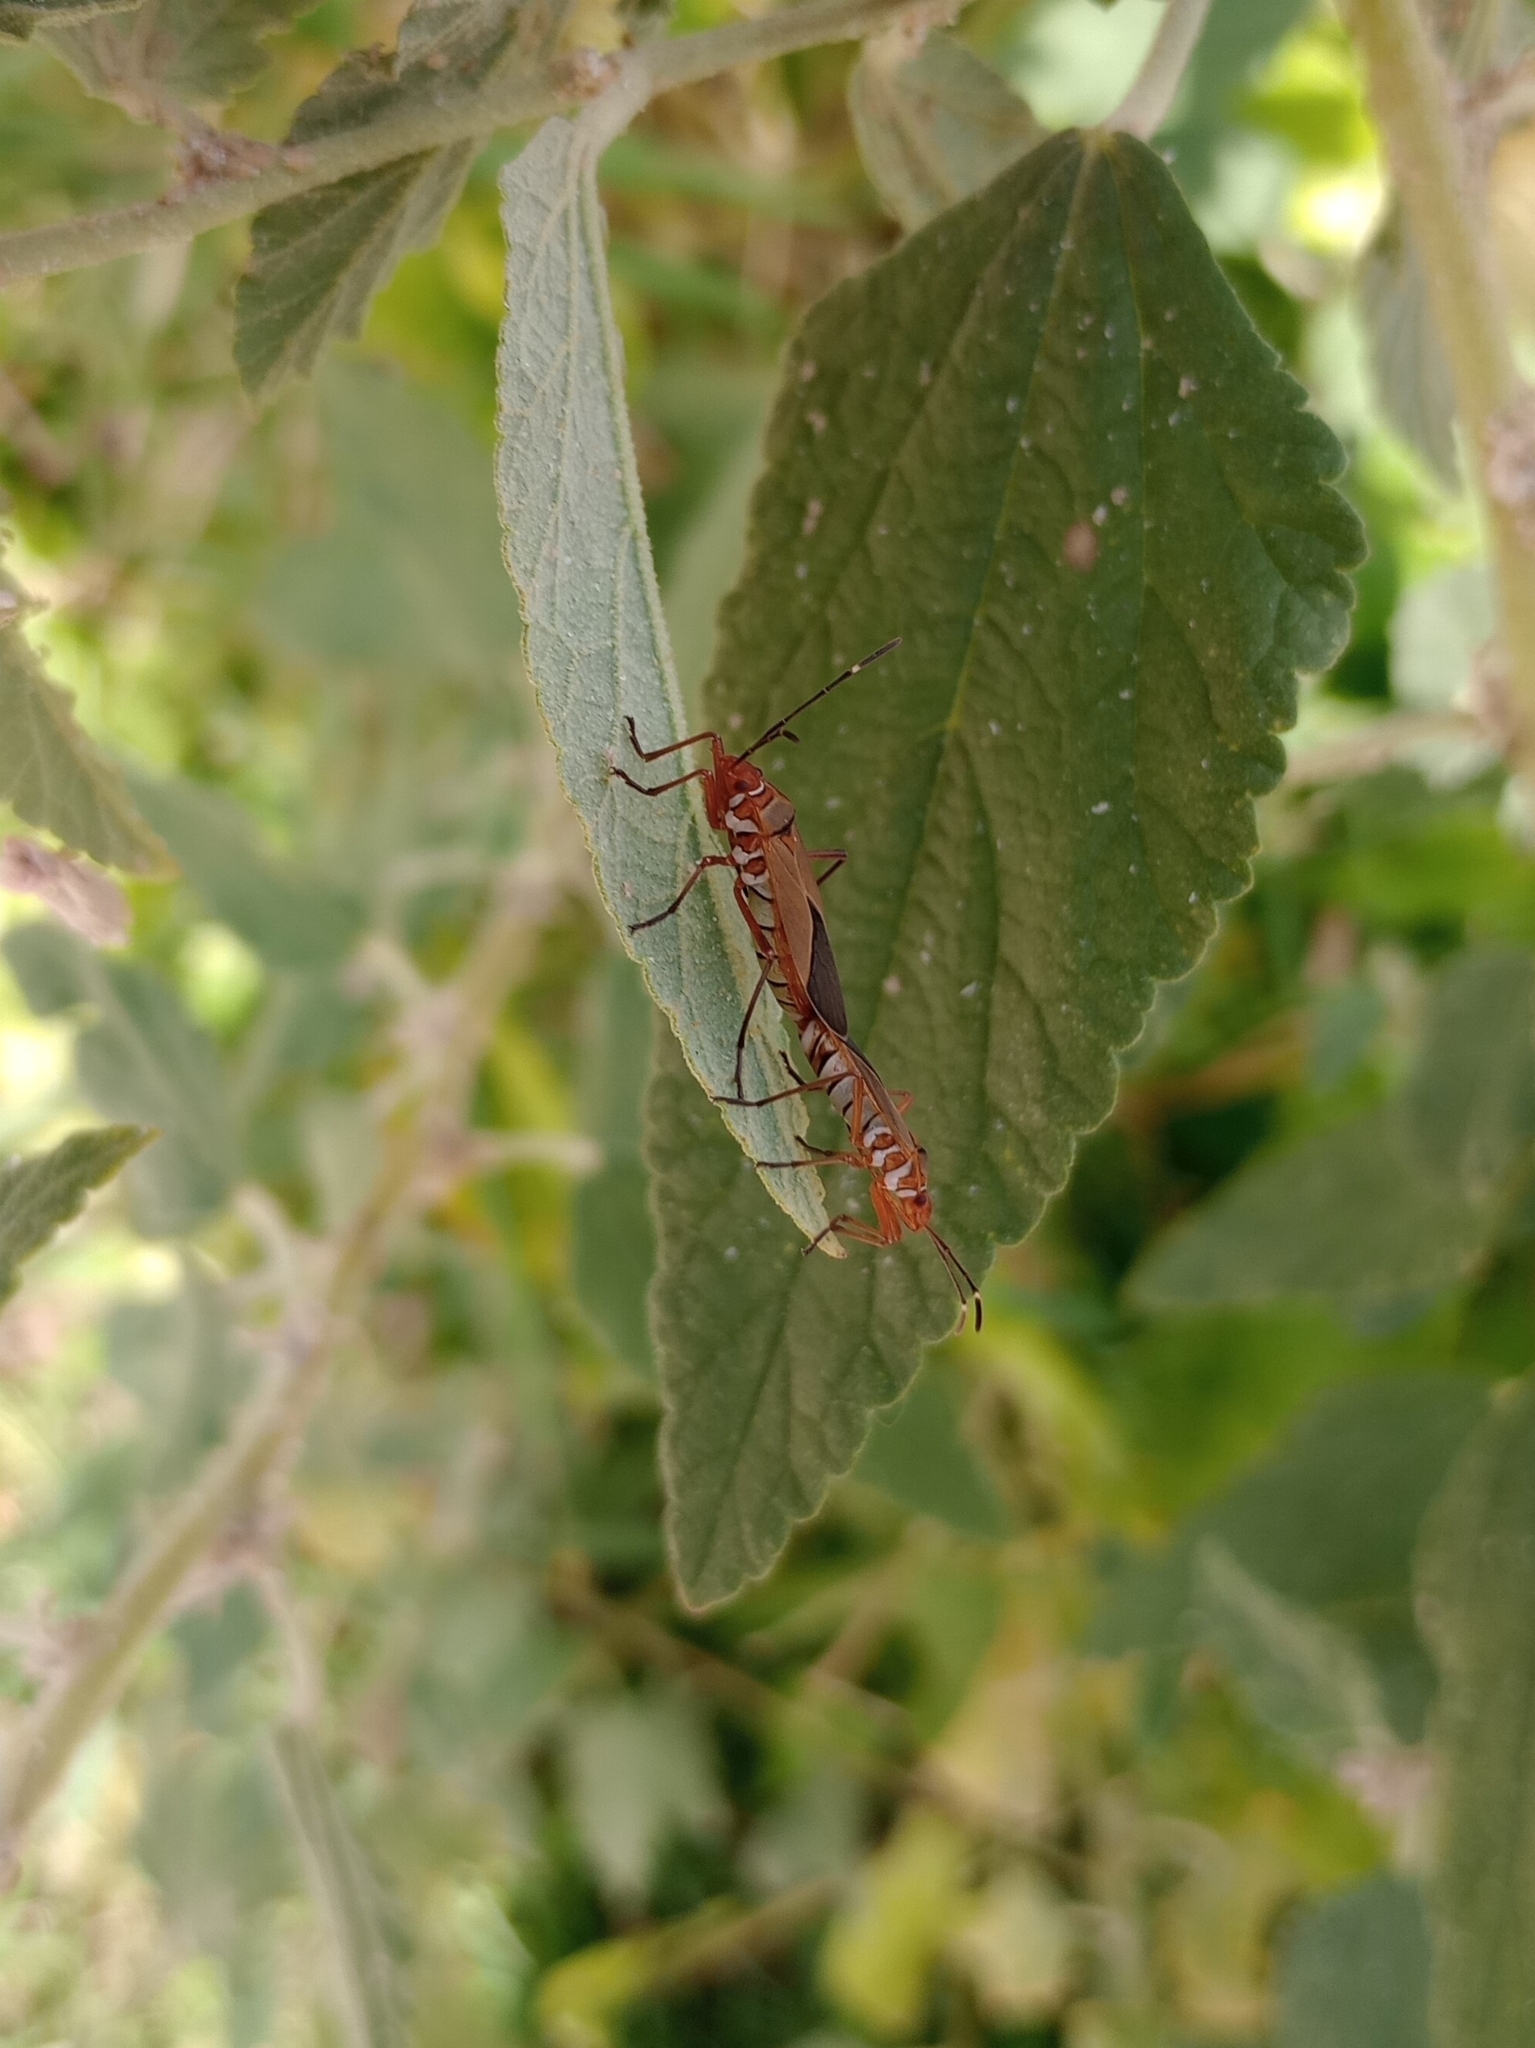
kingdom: Animalia
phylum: Arthropoda
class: Insecta
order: Hemiptera
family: Pyrrhocoridae
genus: Dysdercus
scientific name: Dysdercus
